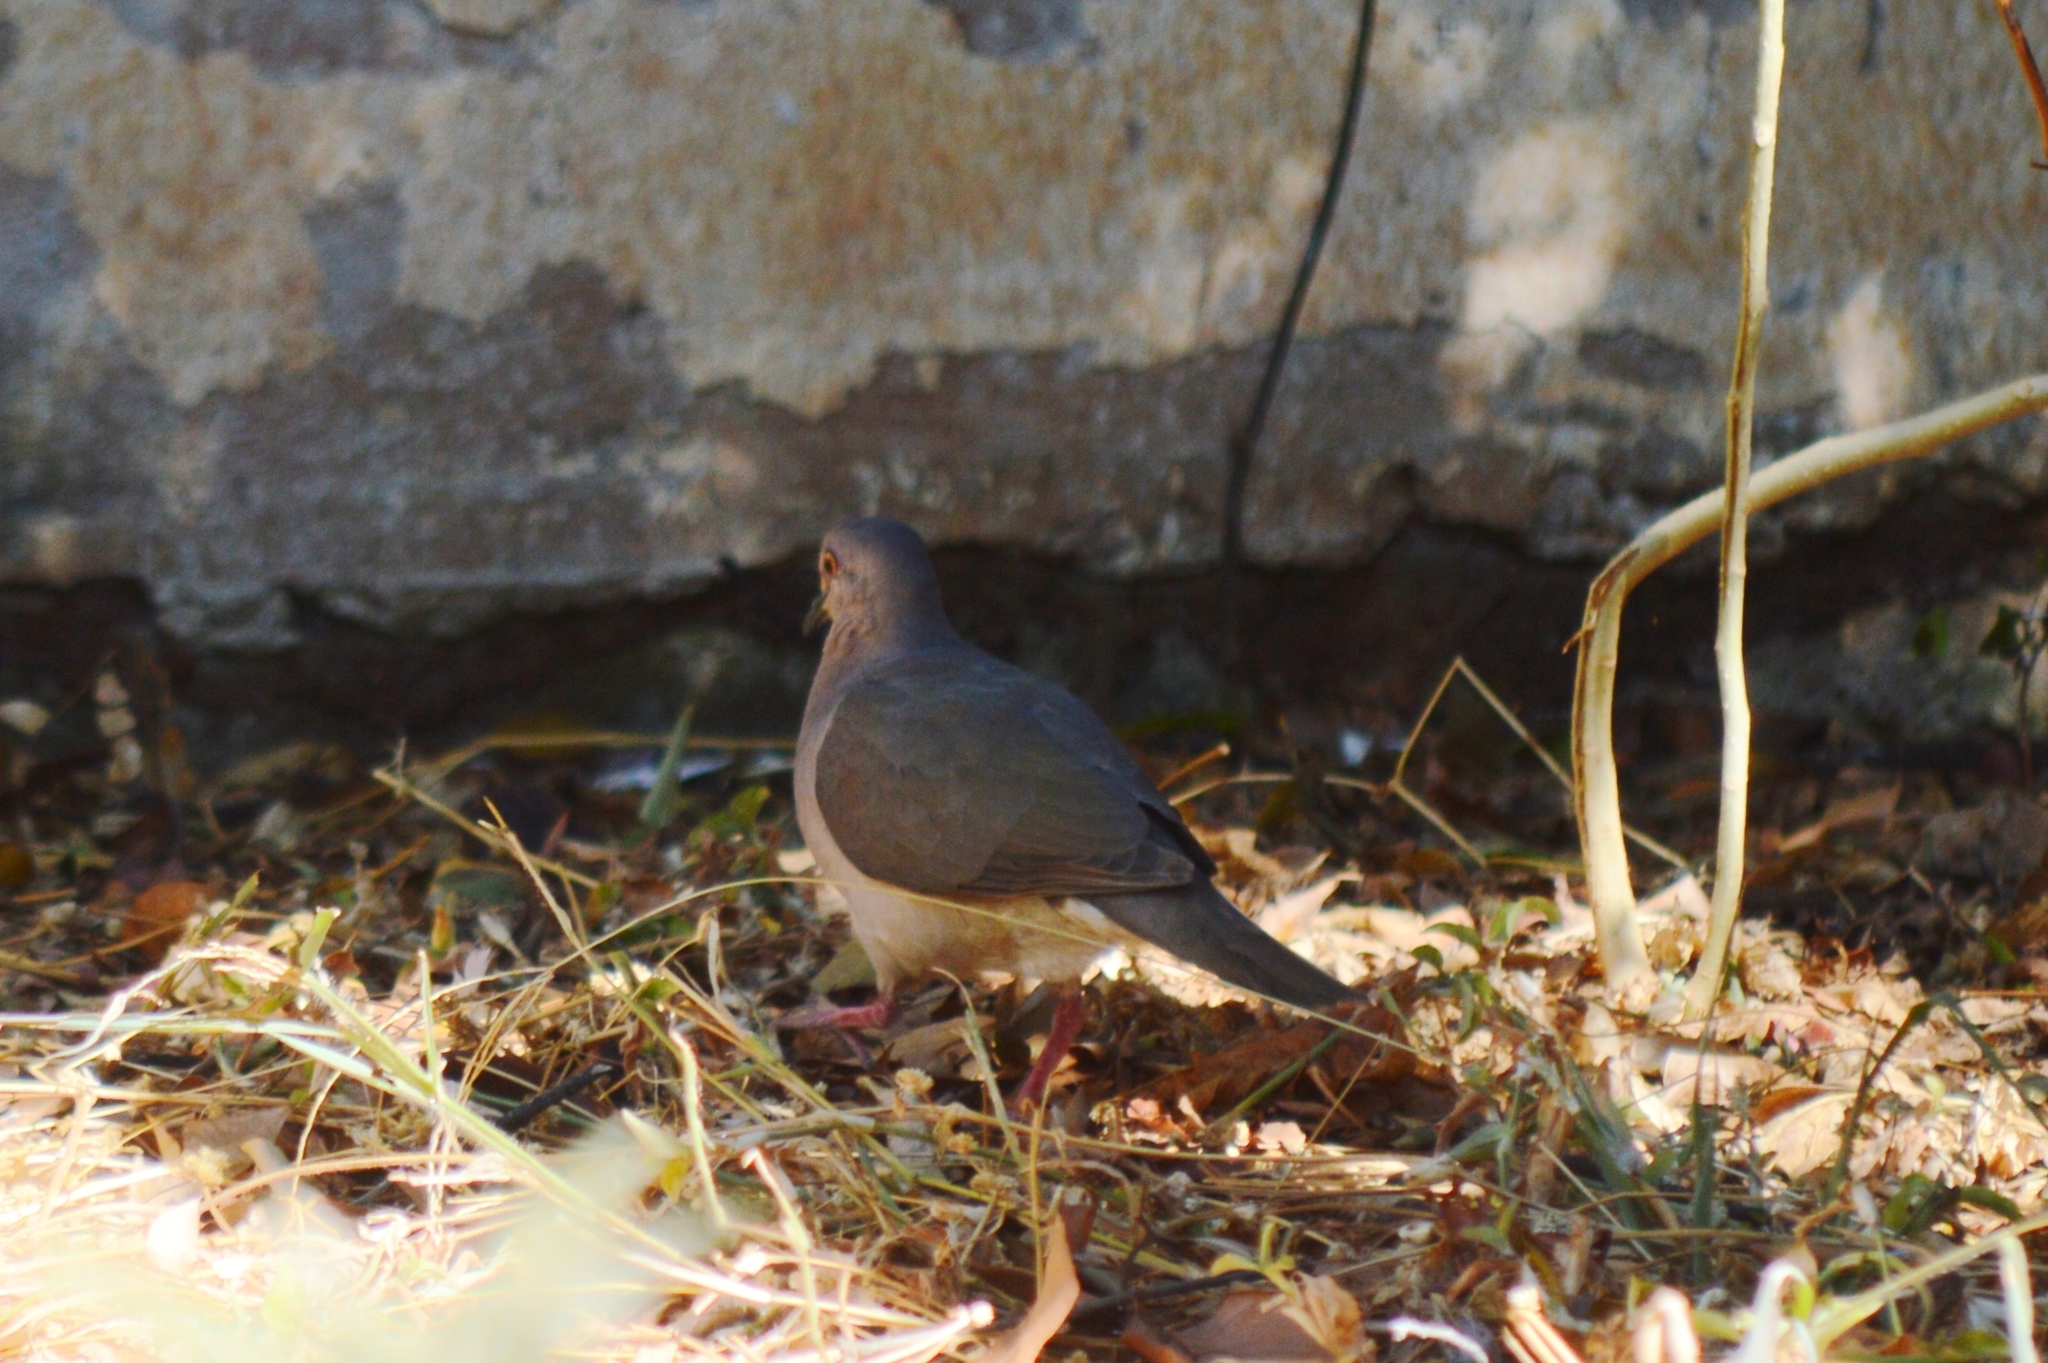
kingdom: Animalia
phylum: Chordata
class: Aves
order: Columbiformes
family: Columbidae
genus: Leptotila
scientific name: Leptotila verreauxi
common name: White-tipped dove
